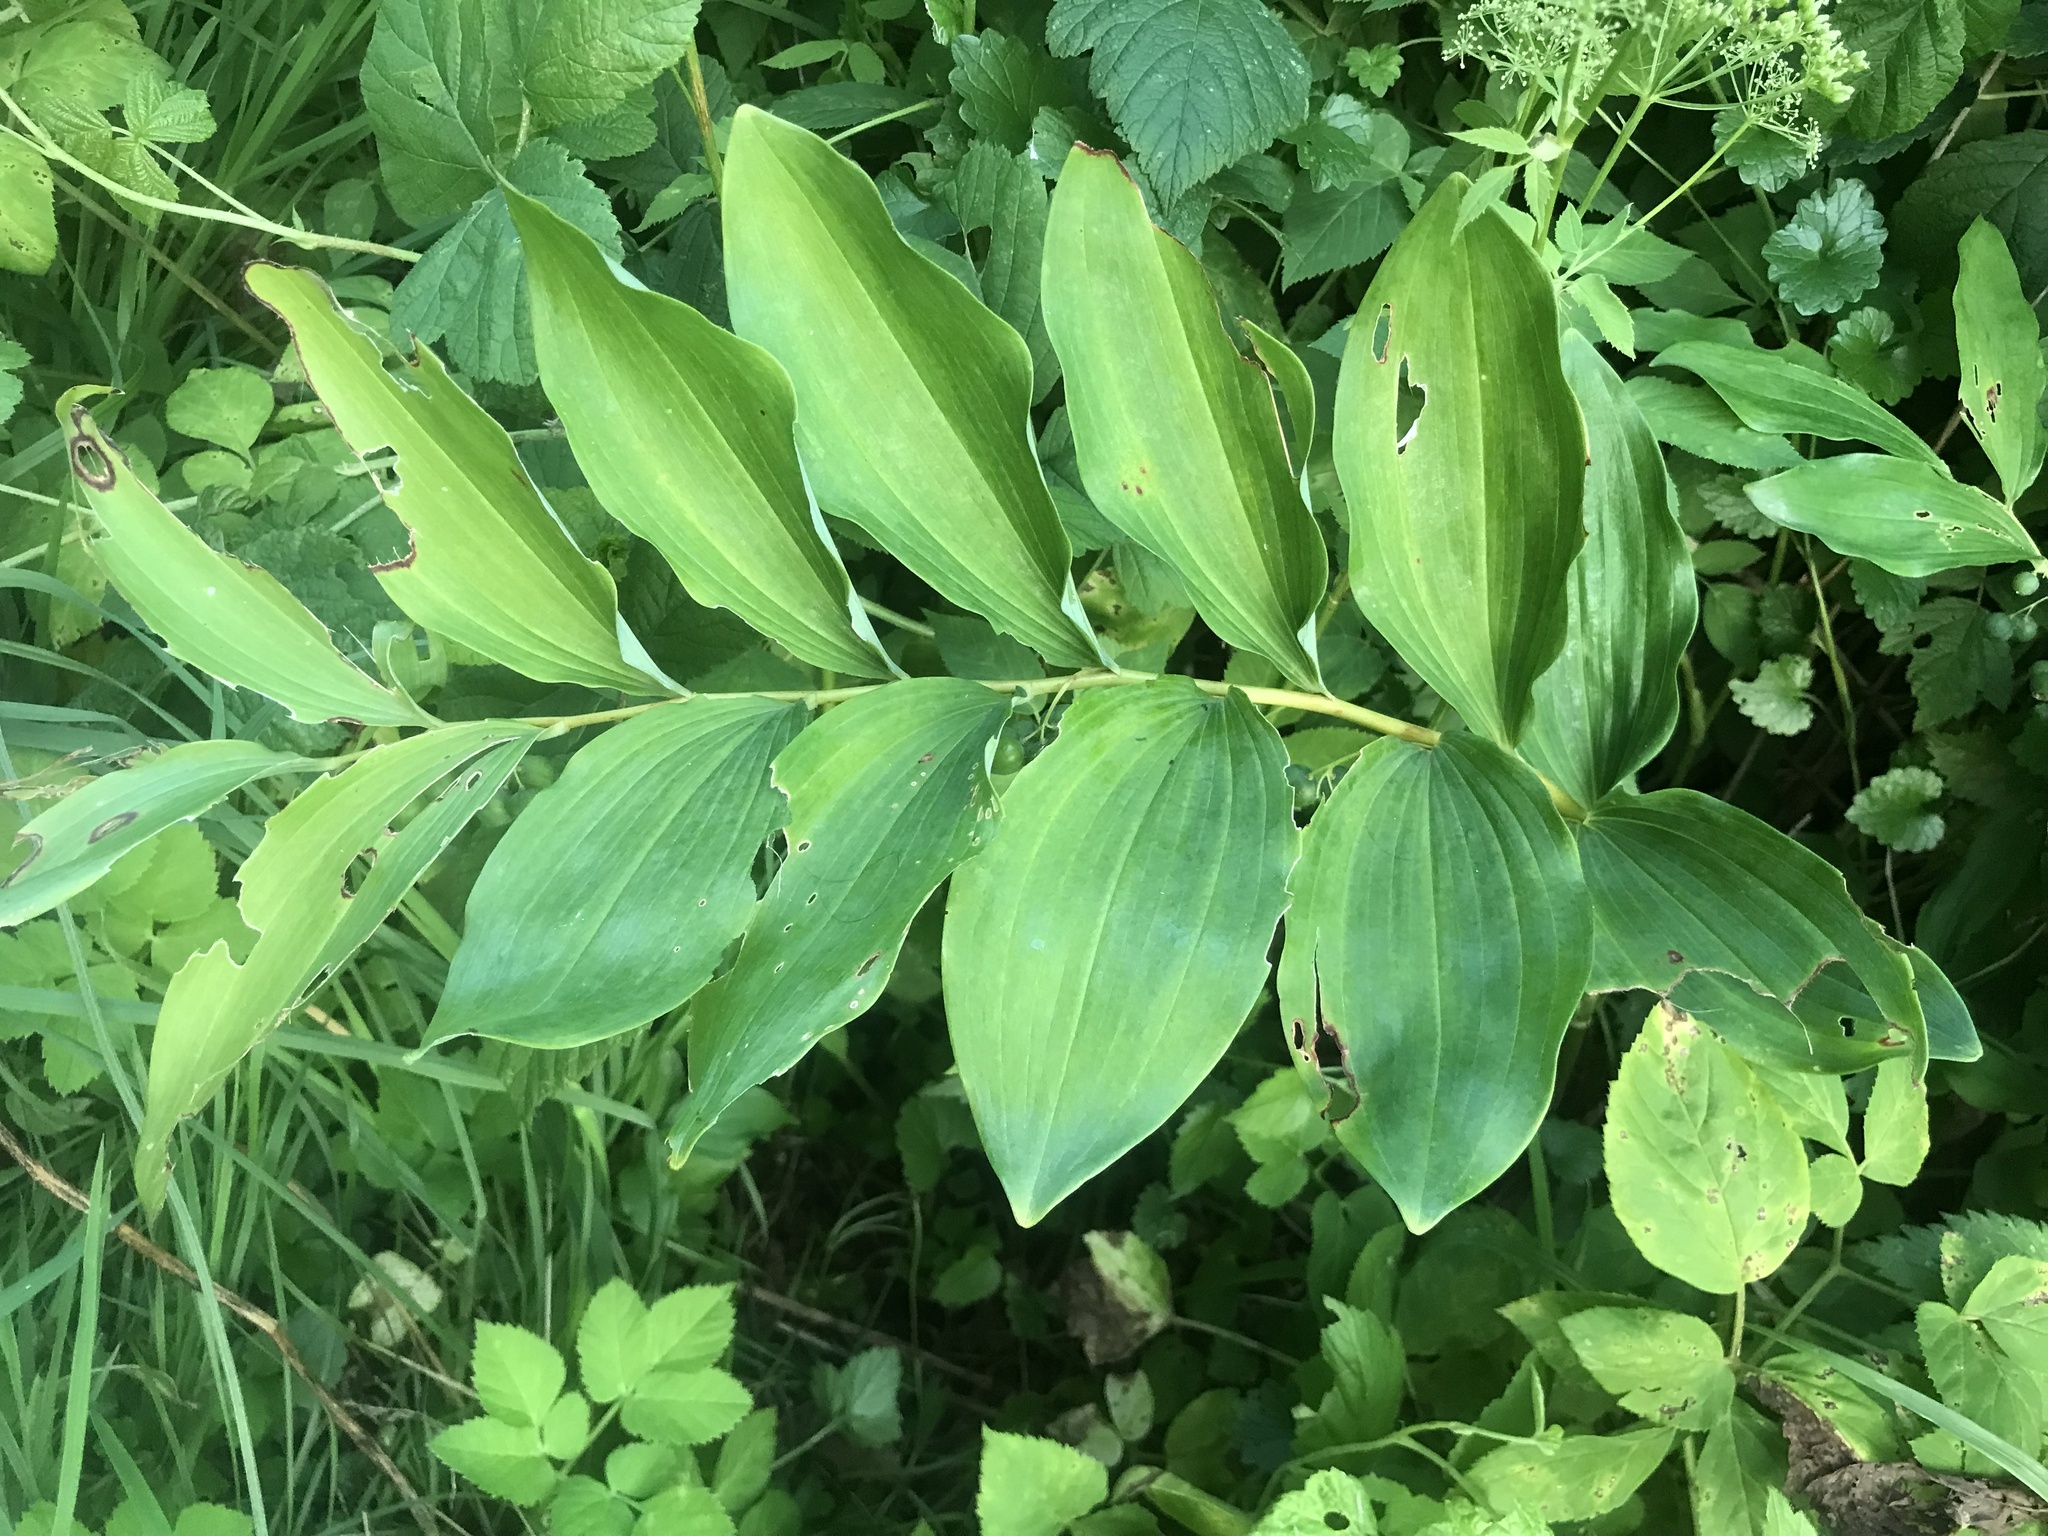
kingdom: Plantae
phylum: Tracheophyta
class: Liliopsida
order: Asparagales
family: Asparagaceae
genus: Polygonatum
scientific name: Polygonatum multiflorum
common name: Solomon's-seal
